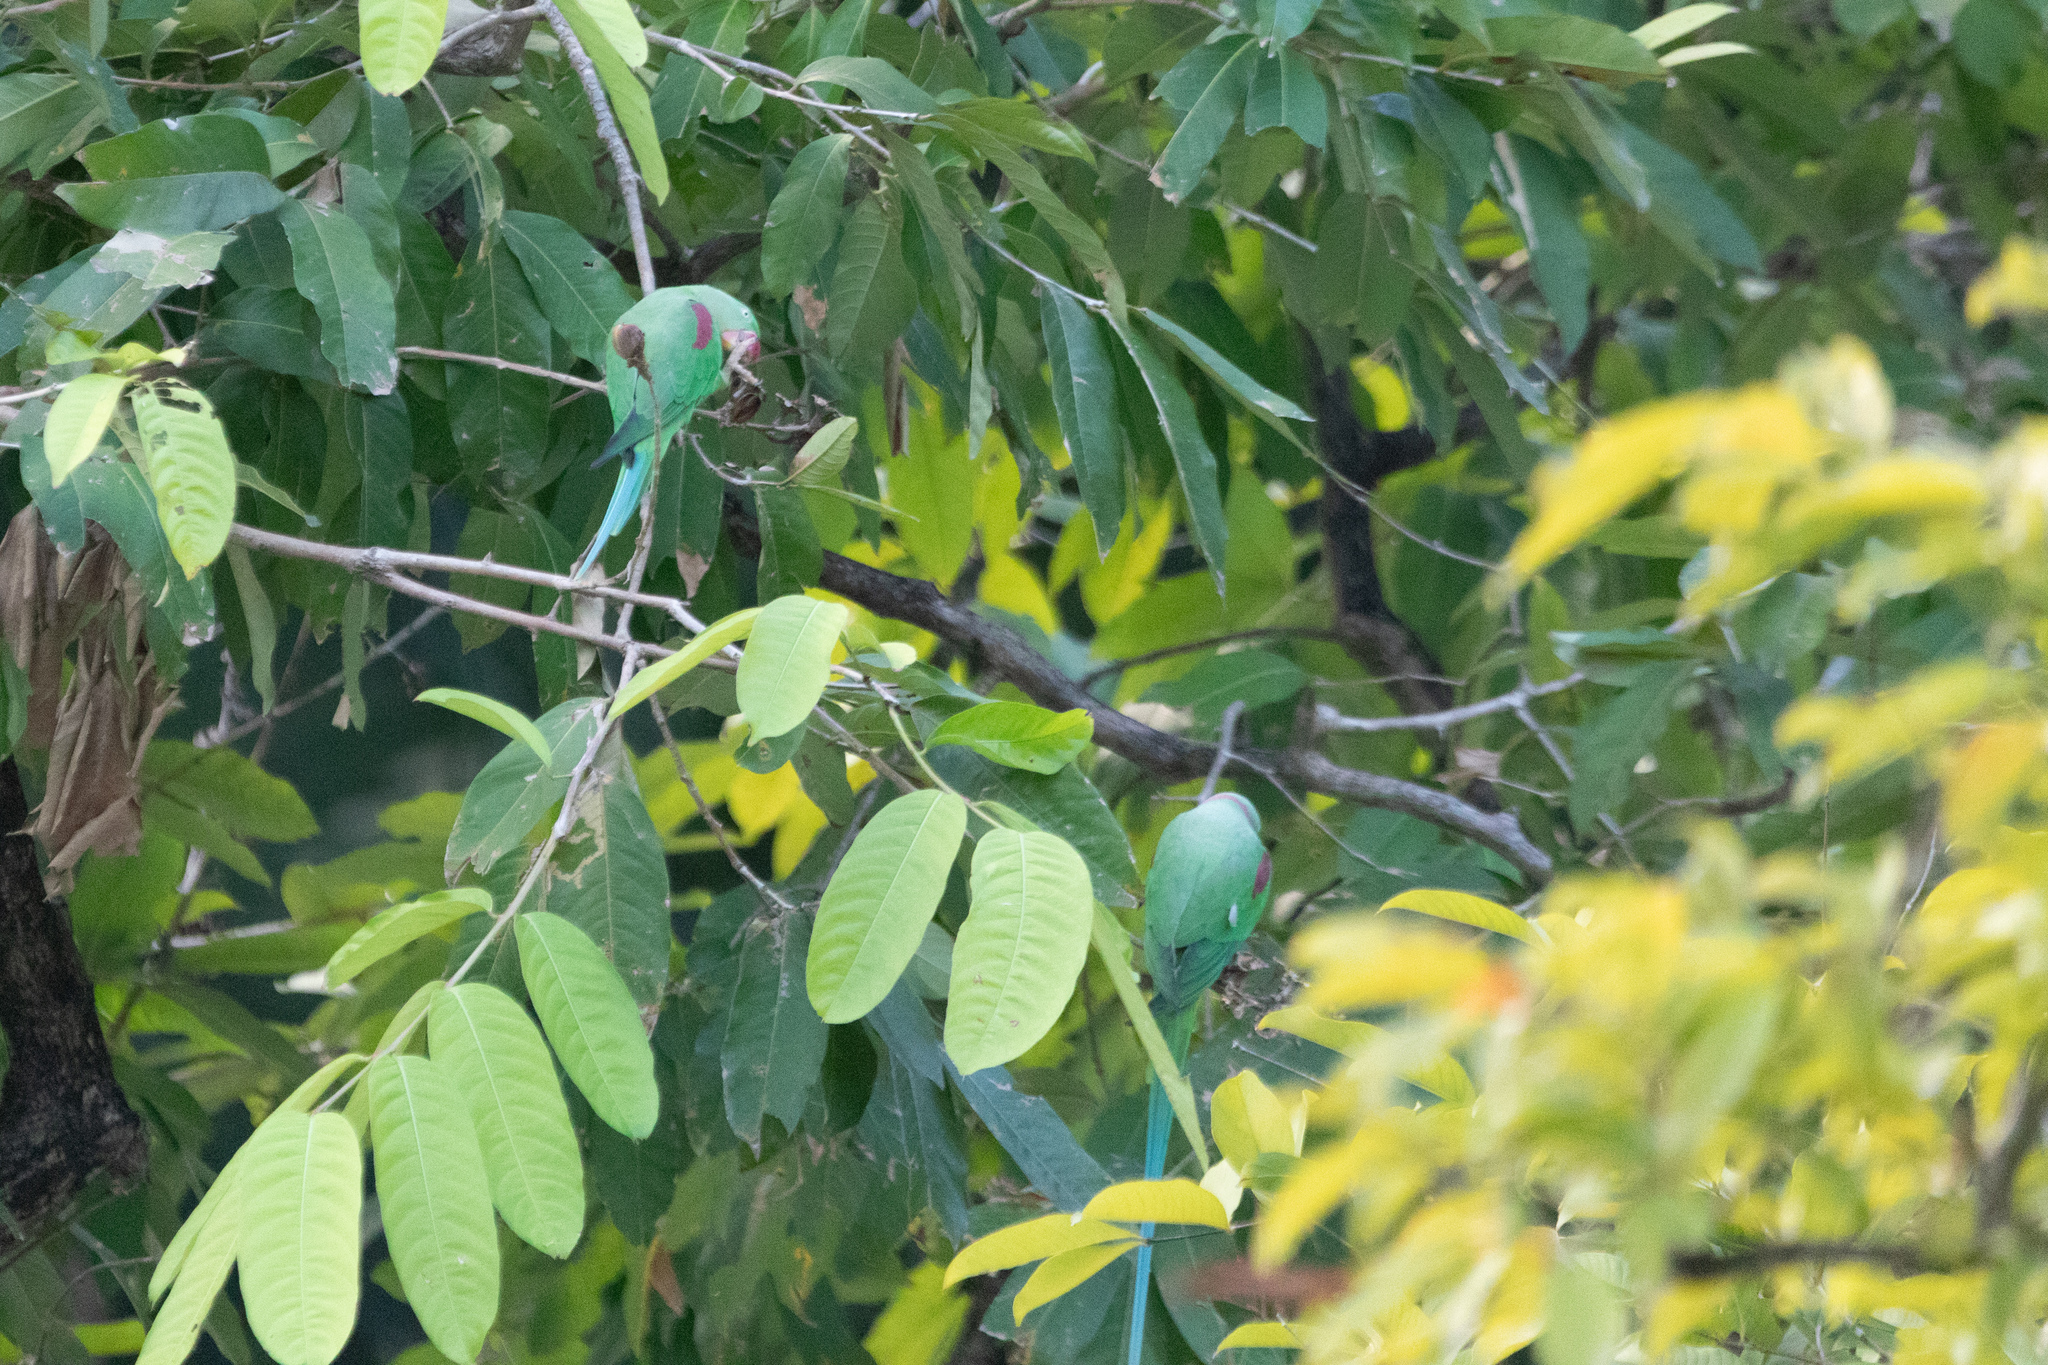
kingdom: Animalia
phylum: Chordata
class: Aves
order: Psittaciformes
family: Psittacidae
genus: Psittacula
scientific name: Psittacula eupatria
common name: Alexandrine parakeet
